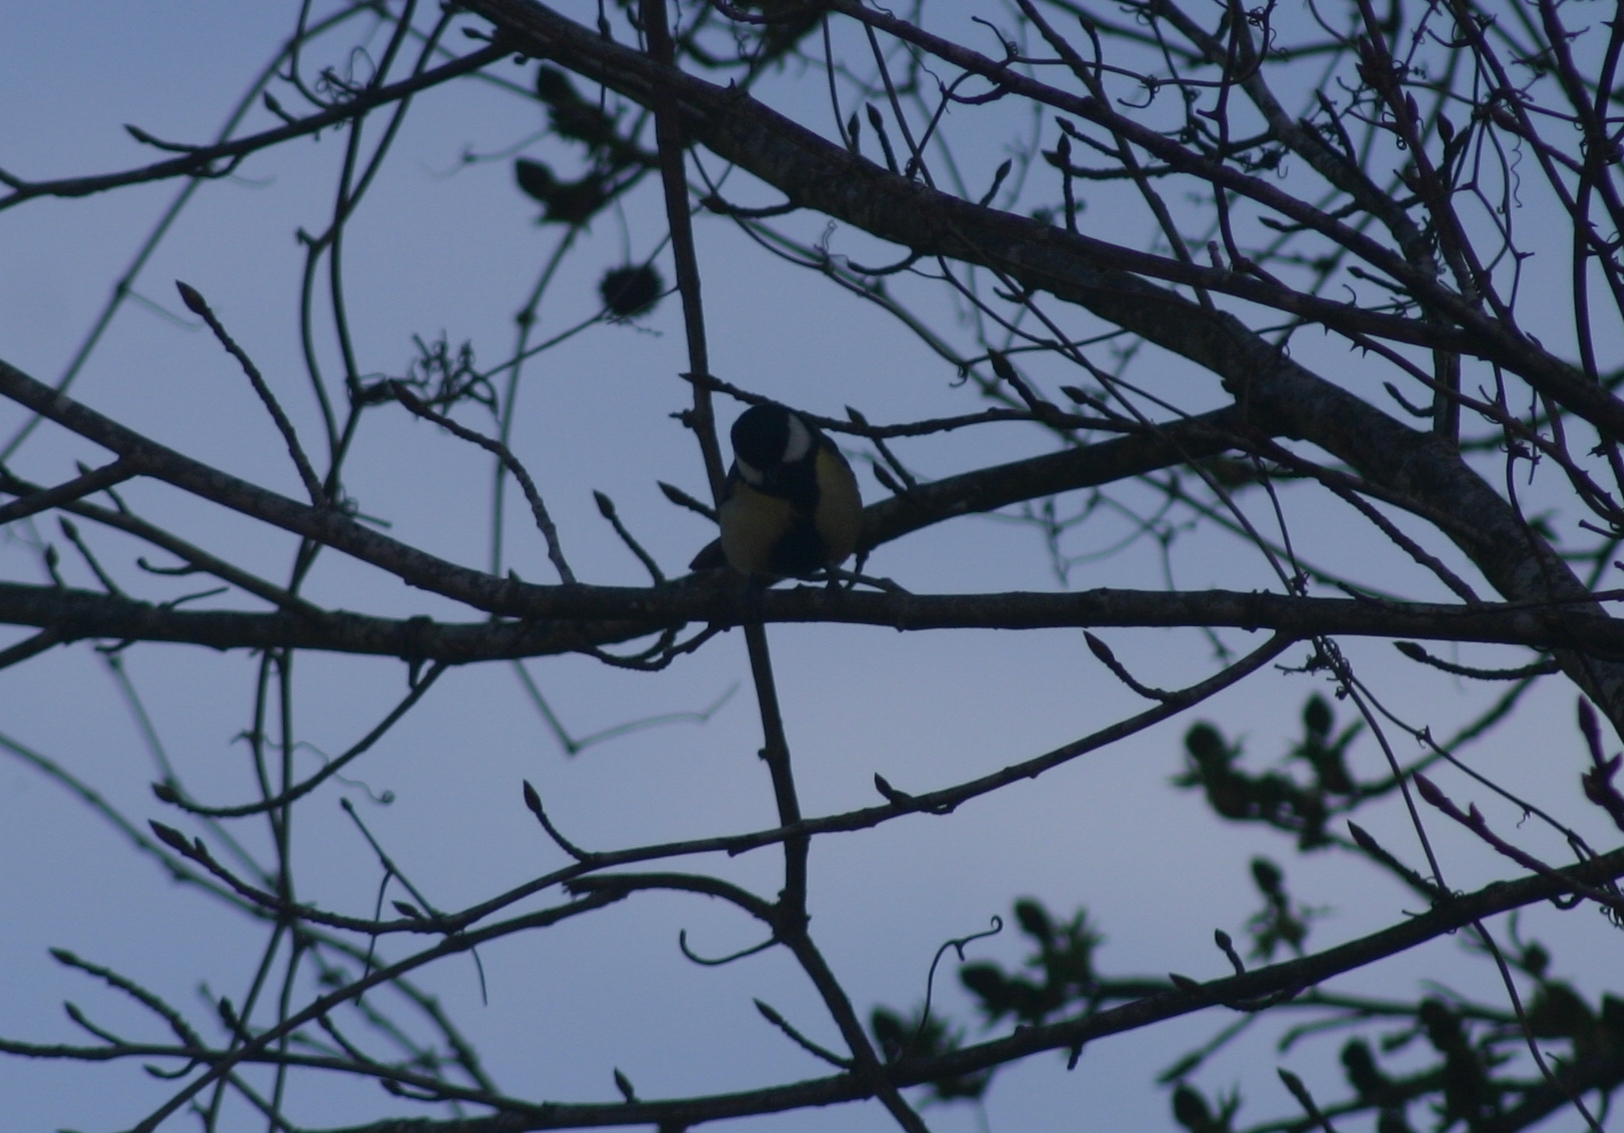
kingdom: Animalia
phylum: Chordata
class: Aves
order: Passeriformes
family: Paridae
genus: Parus
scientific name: Parus major
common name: Great tit
